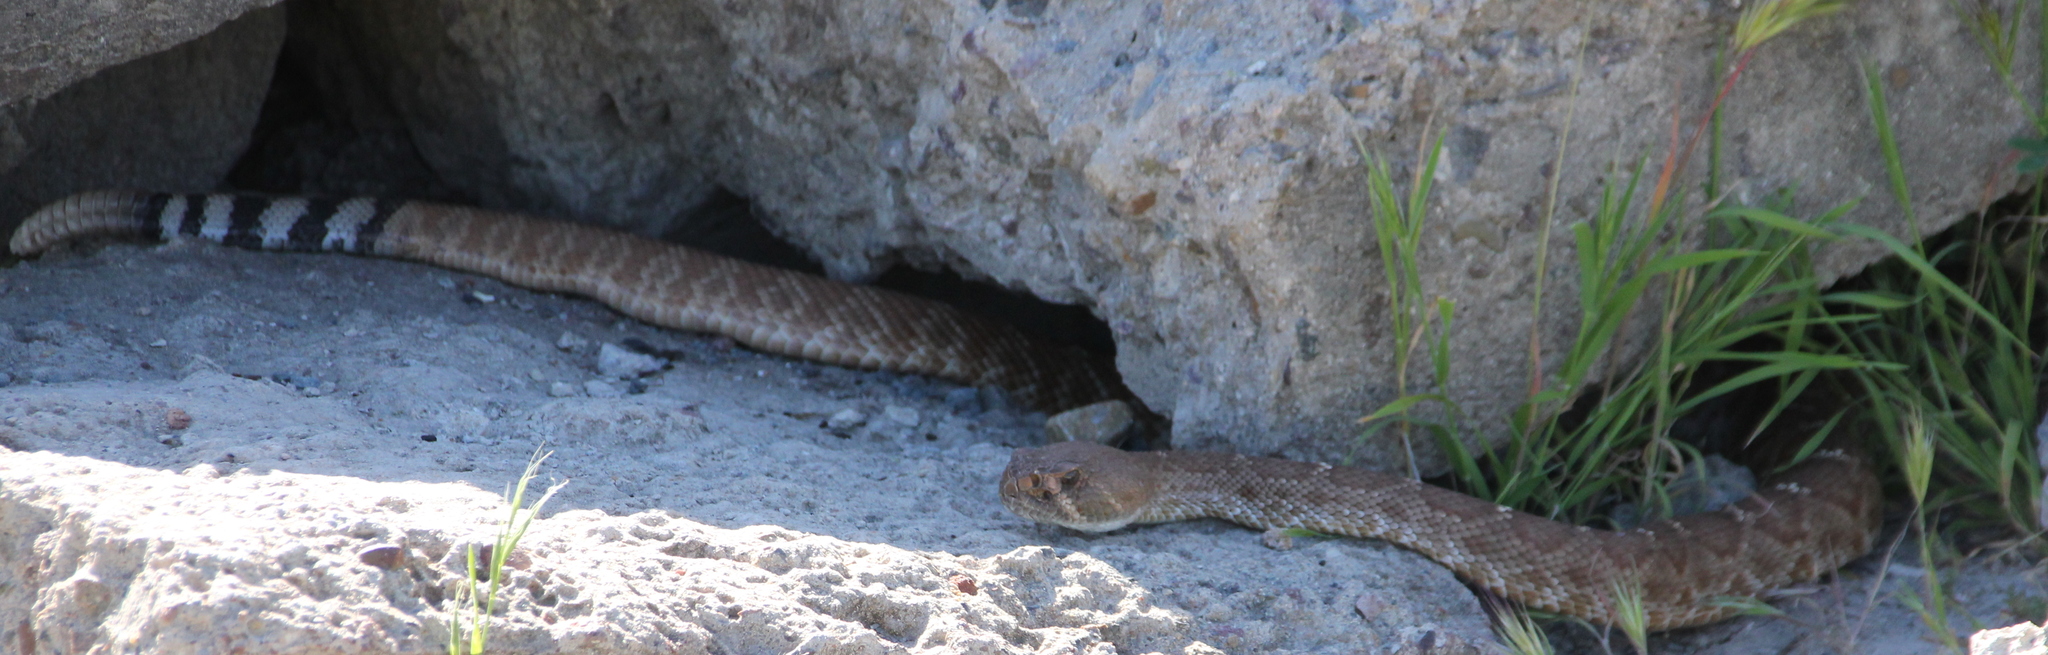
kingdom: Animalia
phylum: Chordata
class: Squamata
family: Viperidae
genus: Crotalus
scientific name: Crotalus ruber
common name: Red diamond rattlesnake
